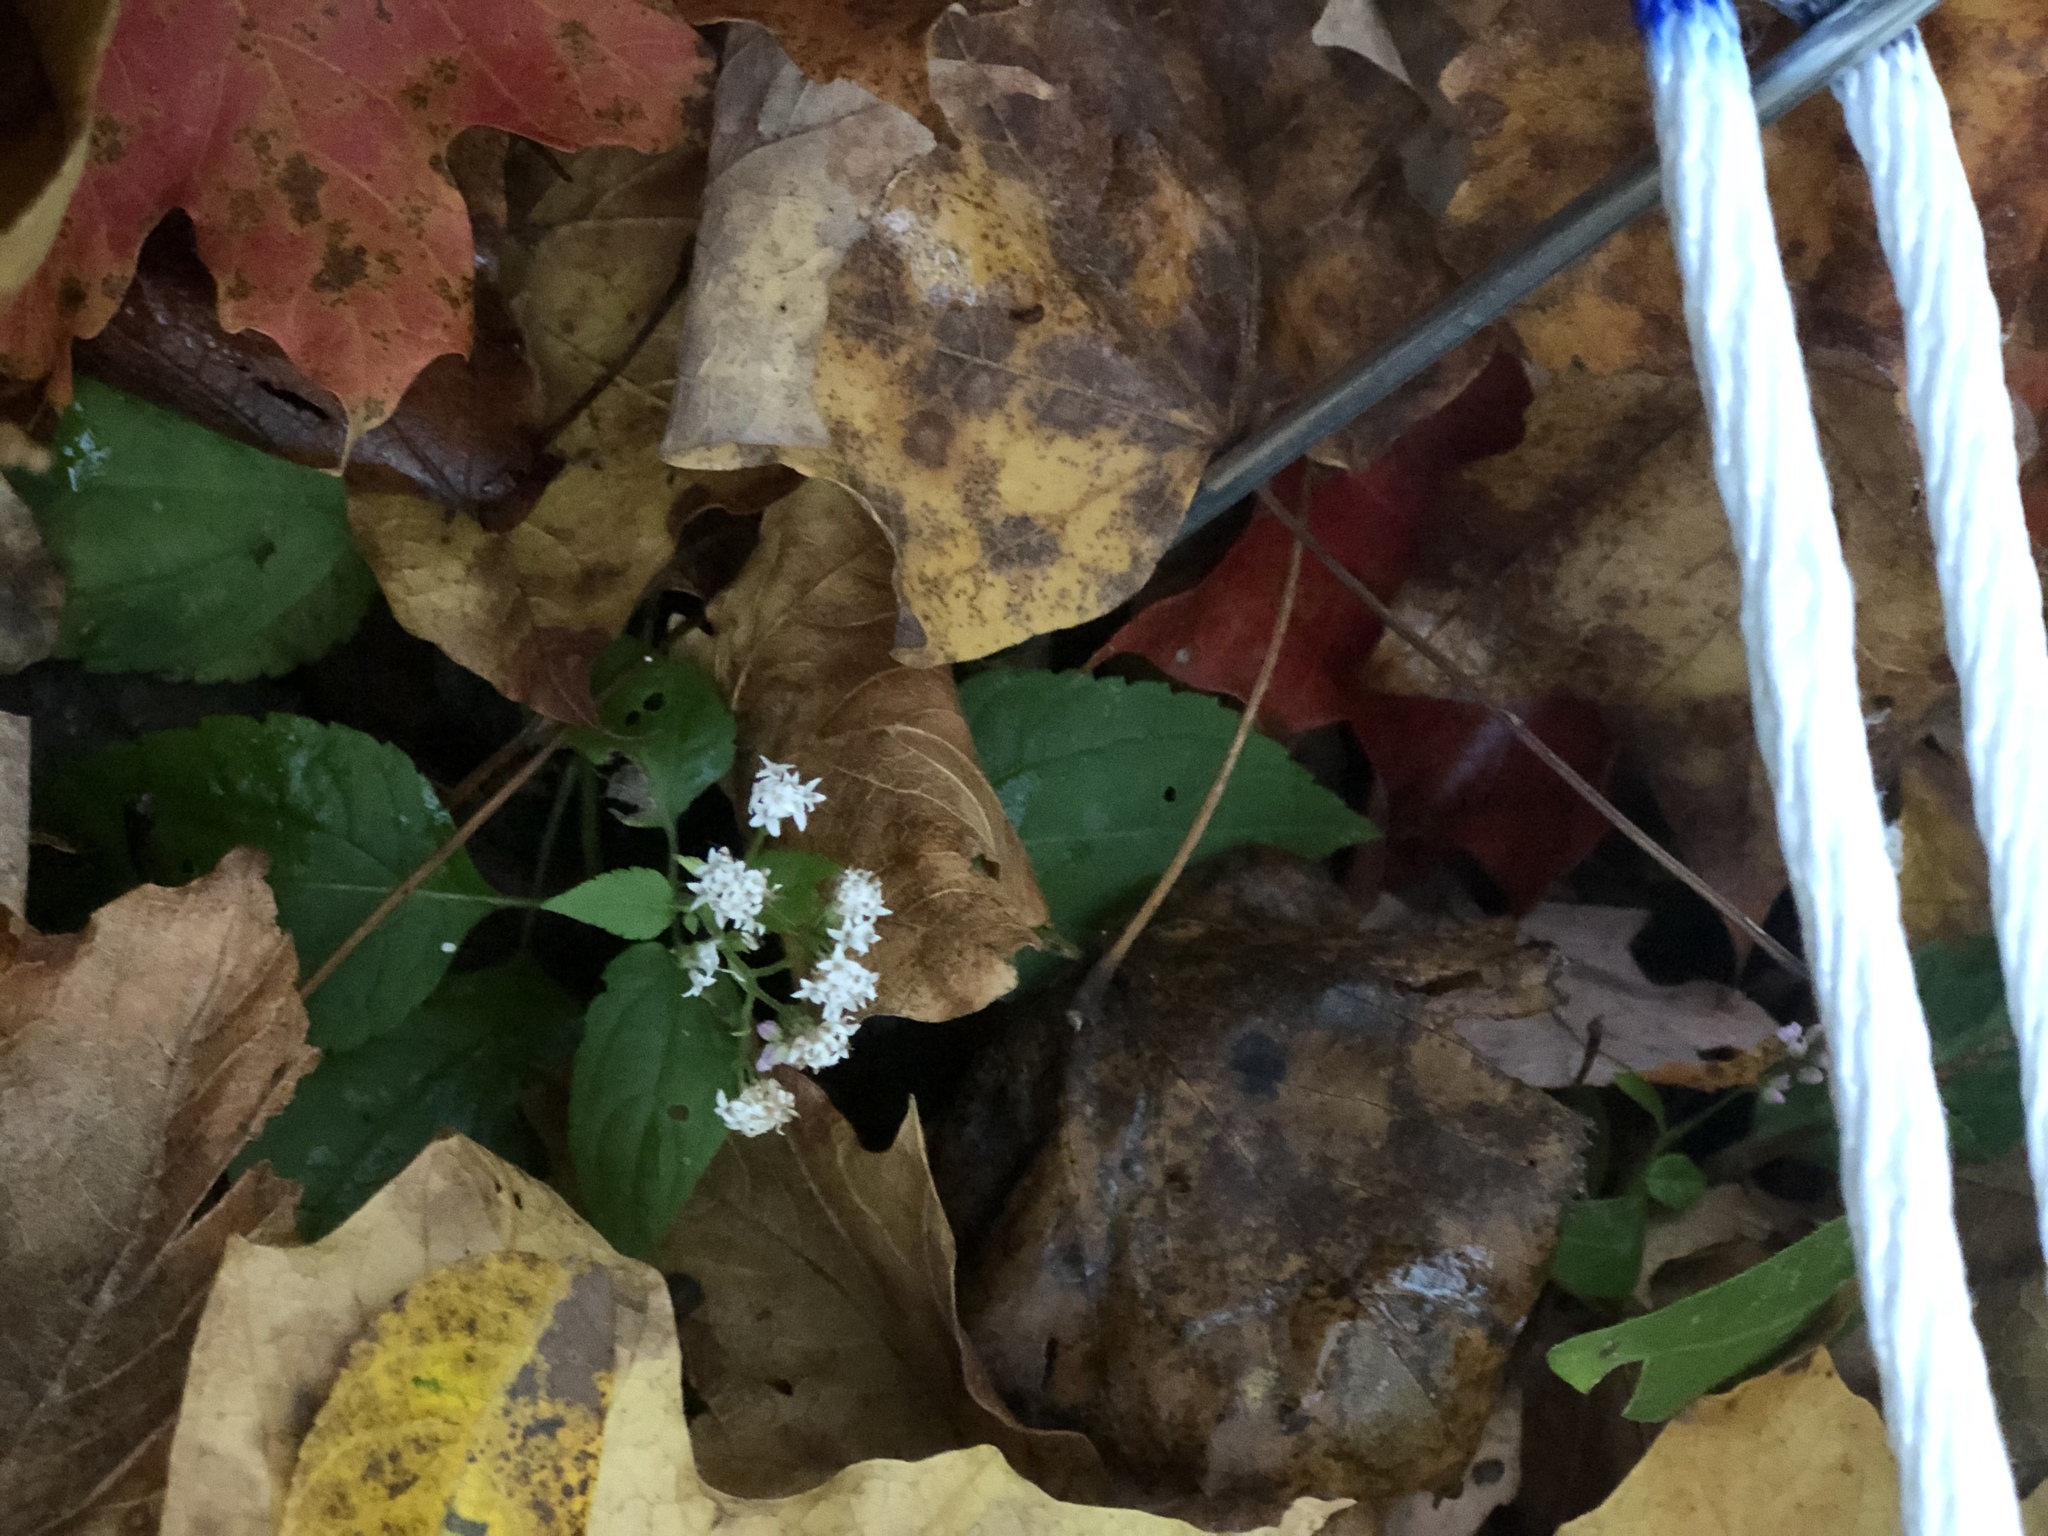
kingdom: Plantae
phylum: Tracheophyta
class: Magnoliopsida
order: Asterales
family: Asteraceae
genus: Ageratina
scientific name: Ageratina altissima
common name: White snakeroot
